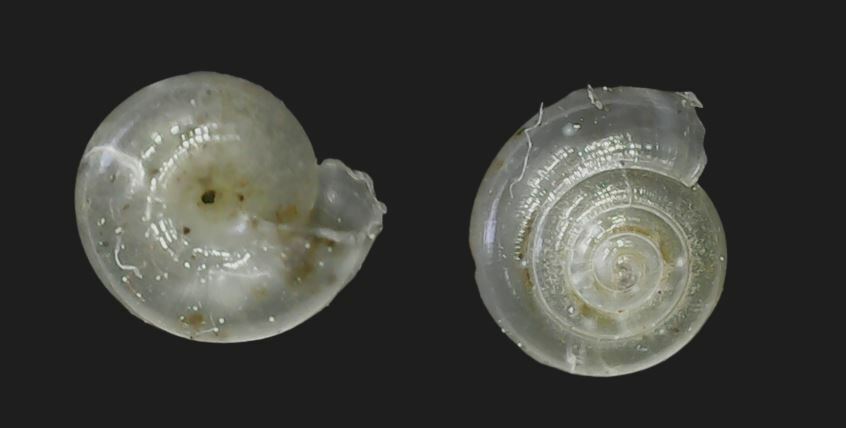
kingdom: Animalia
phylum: Mollusca
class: Gastropoda
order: Stylommatophora
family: Pristilomatidae
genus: Vitrea
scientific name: Vitrea crystallina
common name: Crystal snail
